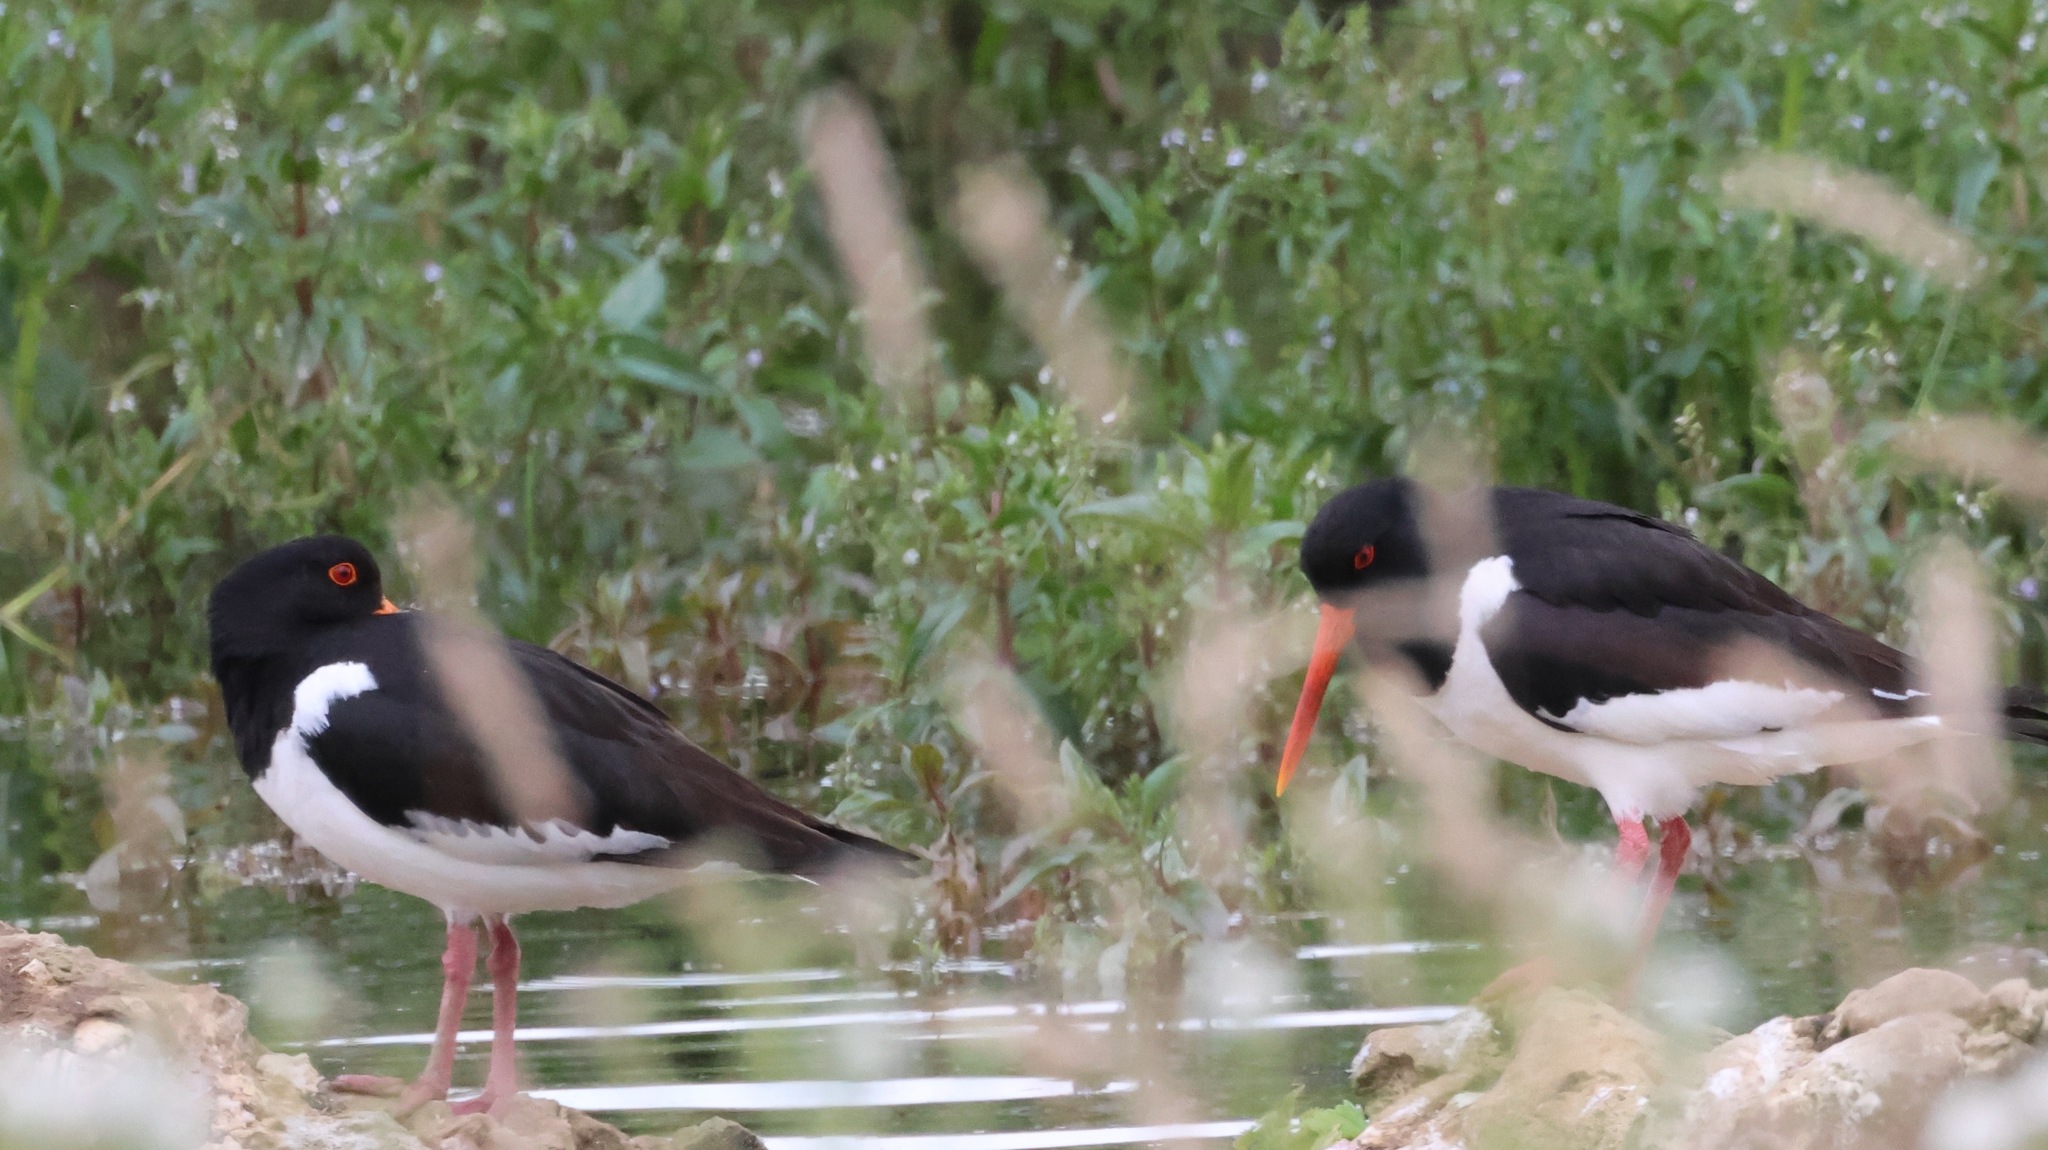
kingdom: Animalia
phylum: Chordata
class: Aves
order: Charadriiformes
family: Haematopodidae
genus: Haematopus
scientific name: Haematopus ostralegus
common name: Eurasian oystercatcher
